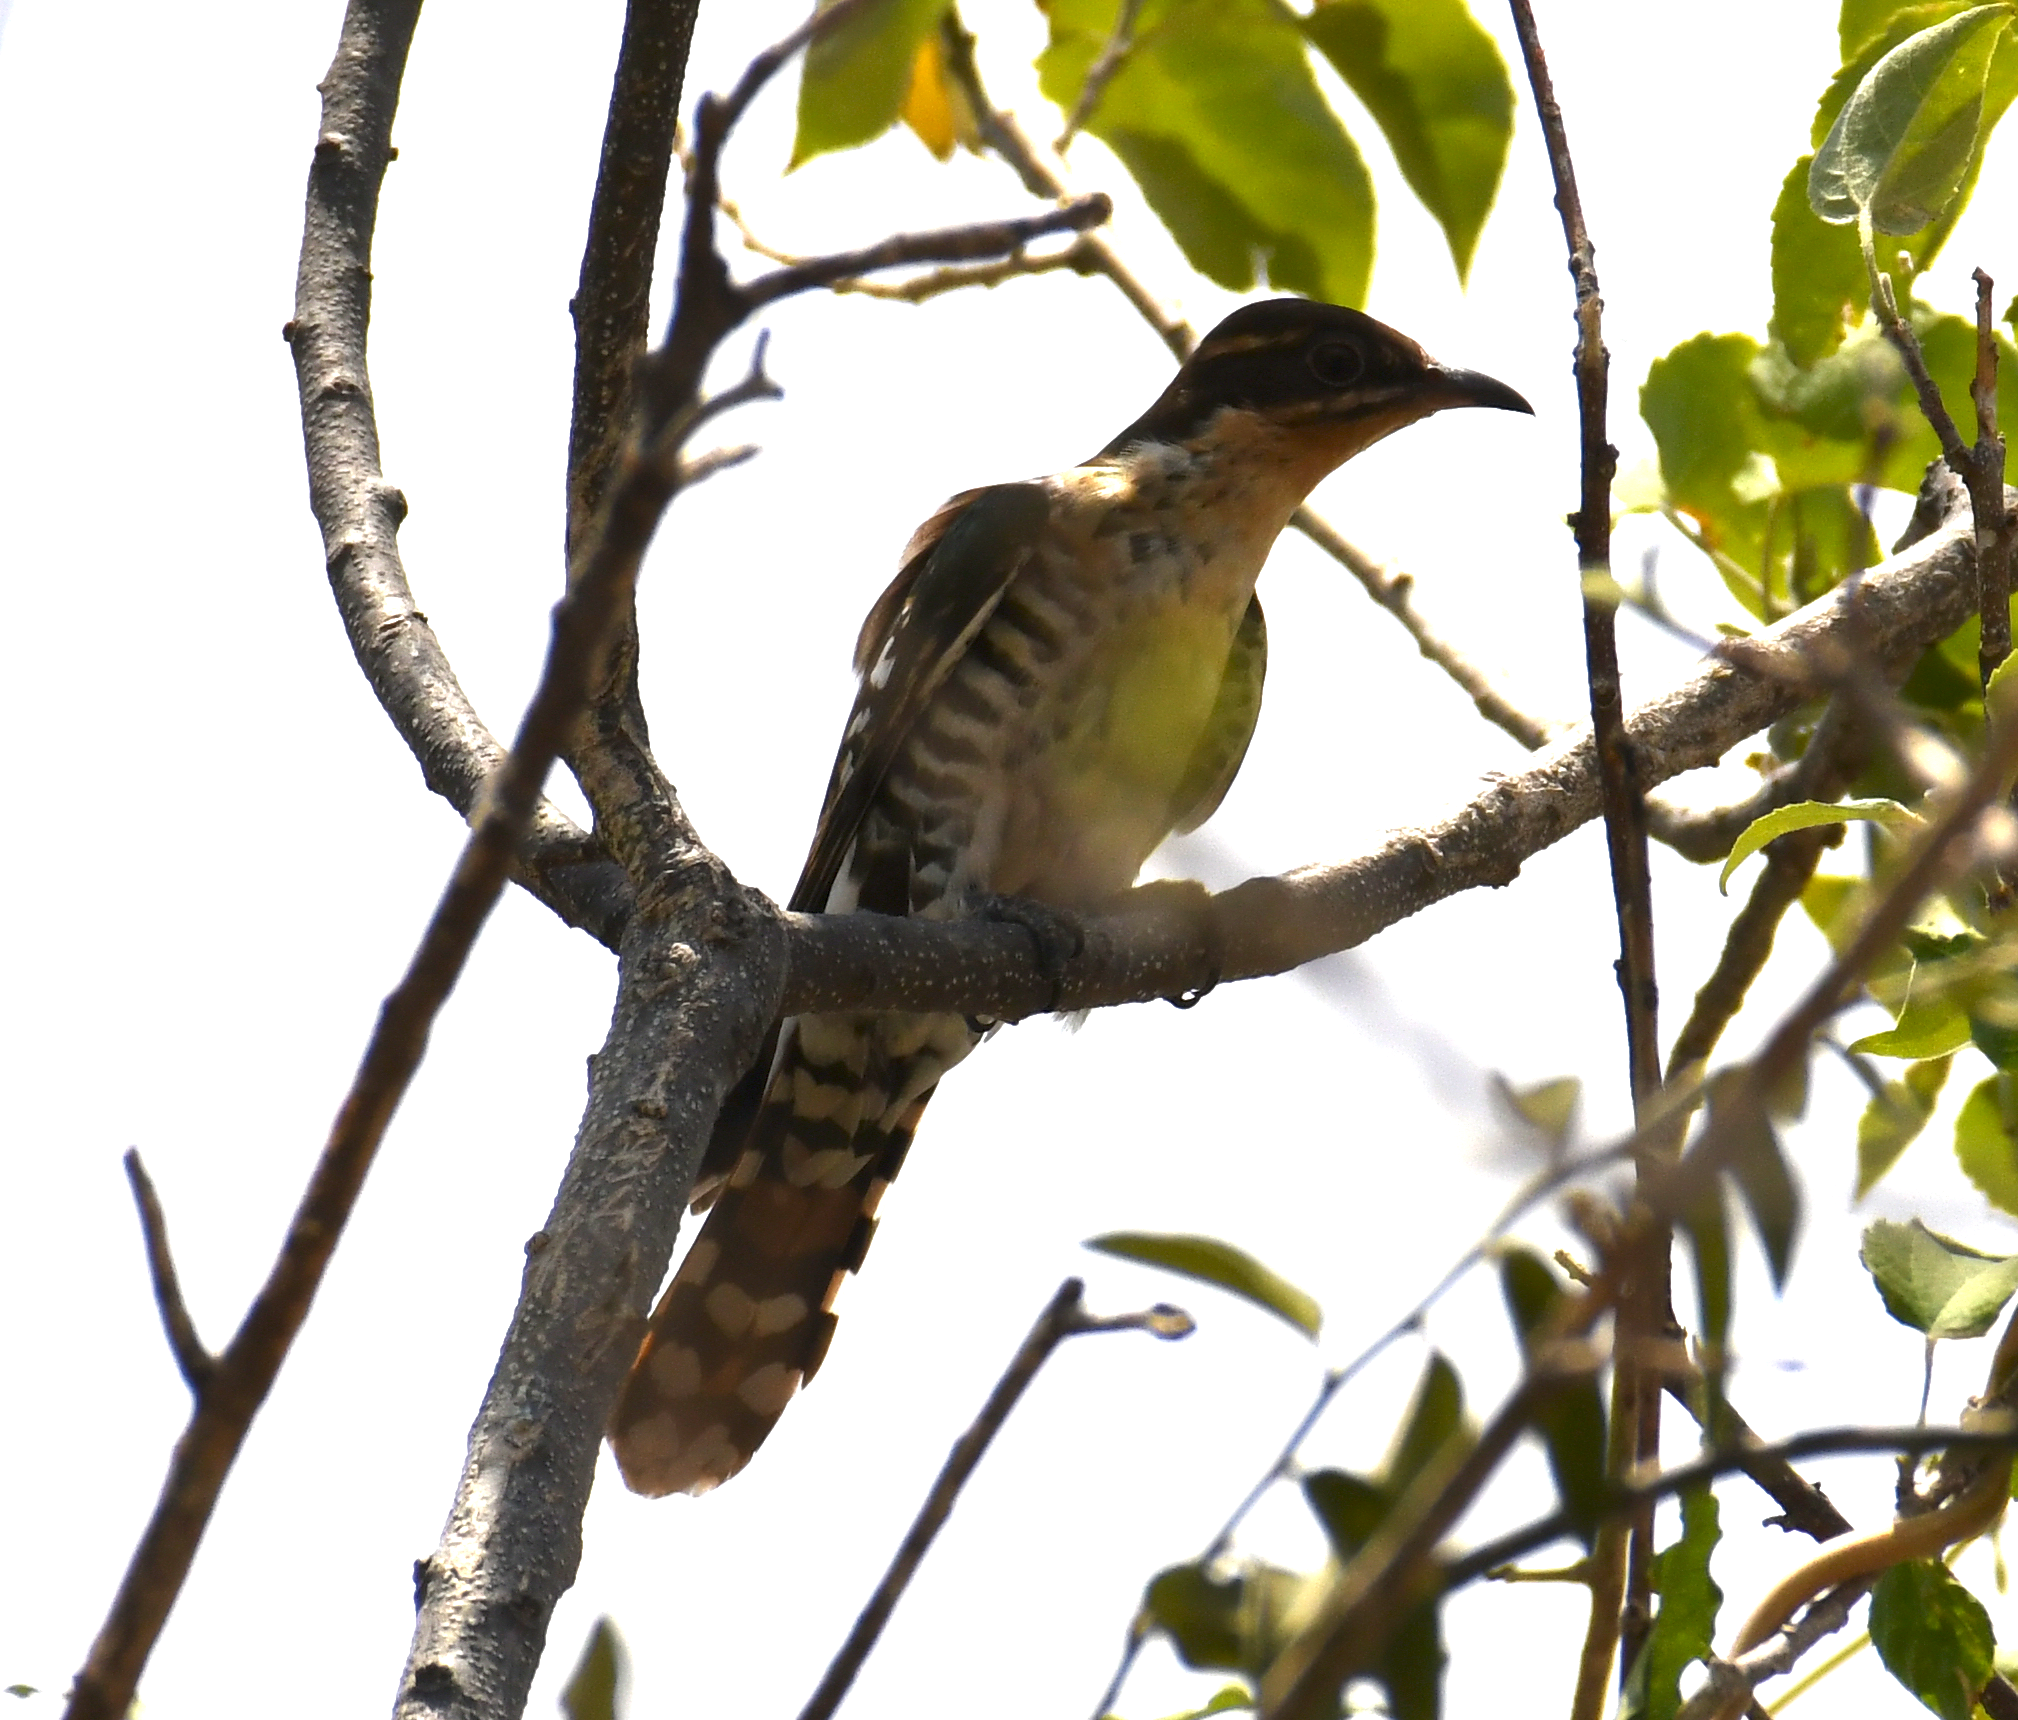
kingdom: Animalia
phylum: Chordata
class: Aves
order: Cuculiformes
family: Cuculidae
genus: Chrysococcyx
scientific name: Chrysococcyx caprius
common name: Diederik cuckoo
